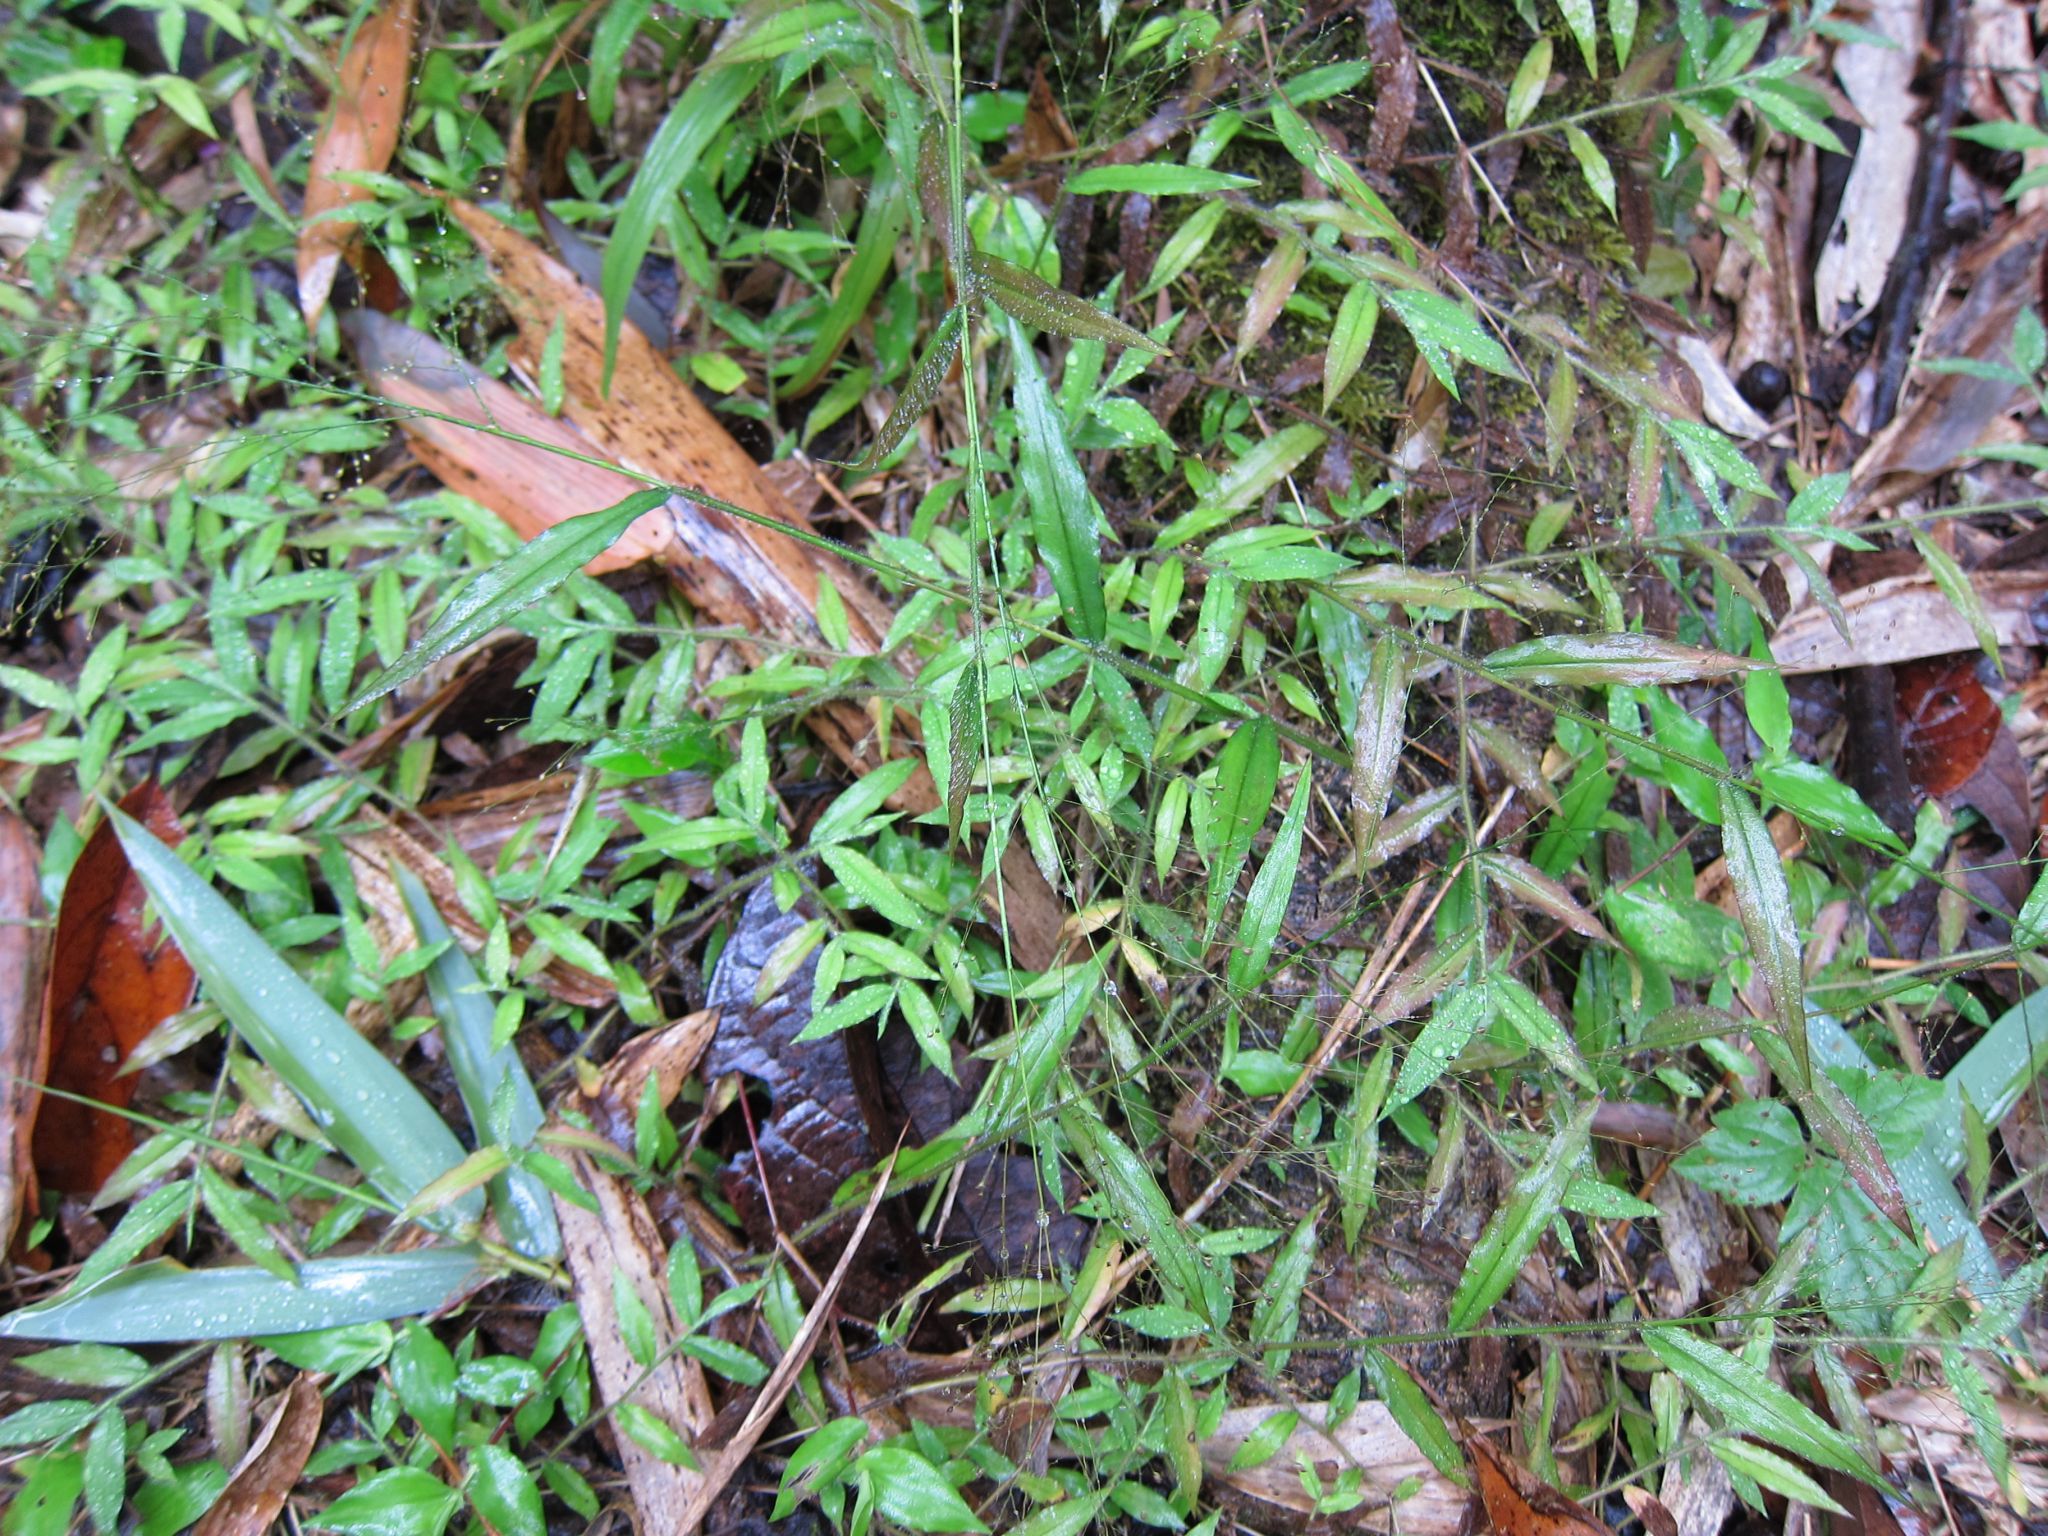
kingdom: Plantae
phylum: Tracheophyta
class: Liliopsida
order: Poales
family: Poaceae
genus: Cyrtococcum
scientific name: Cyrtococcum multinode
